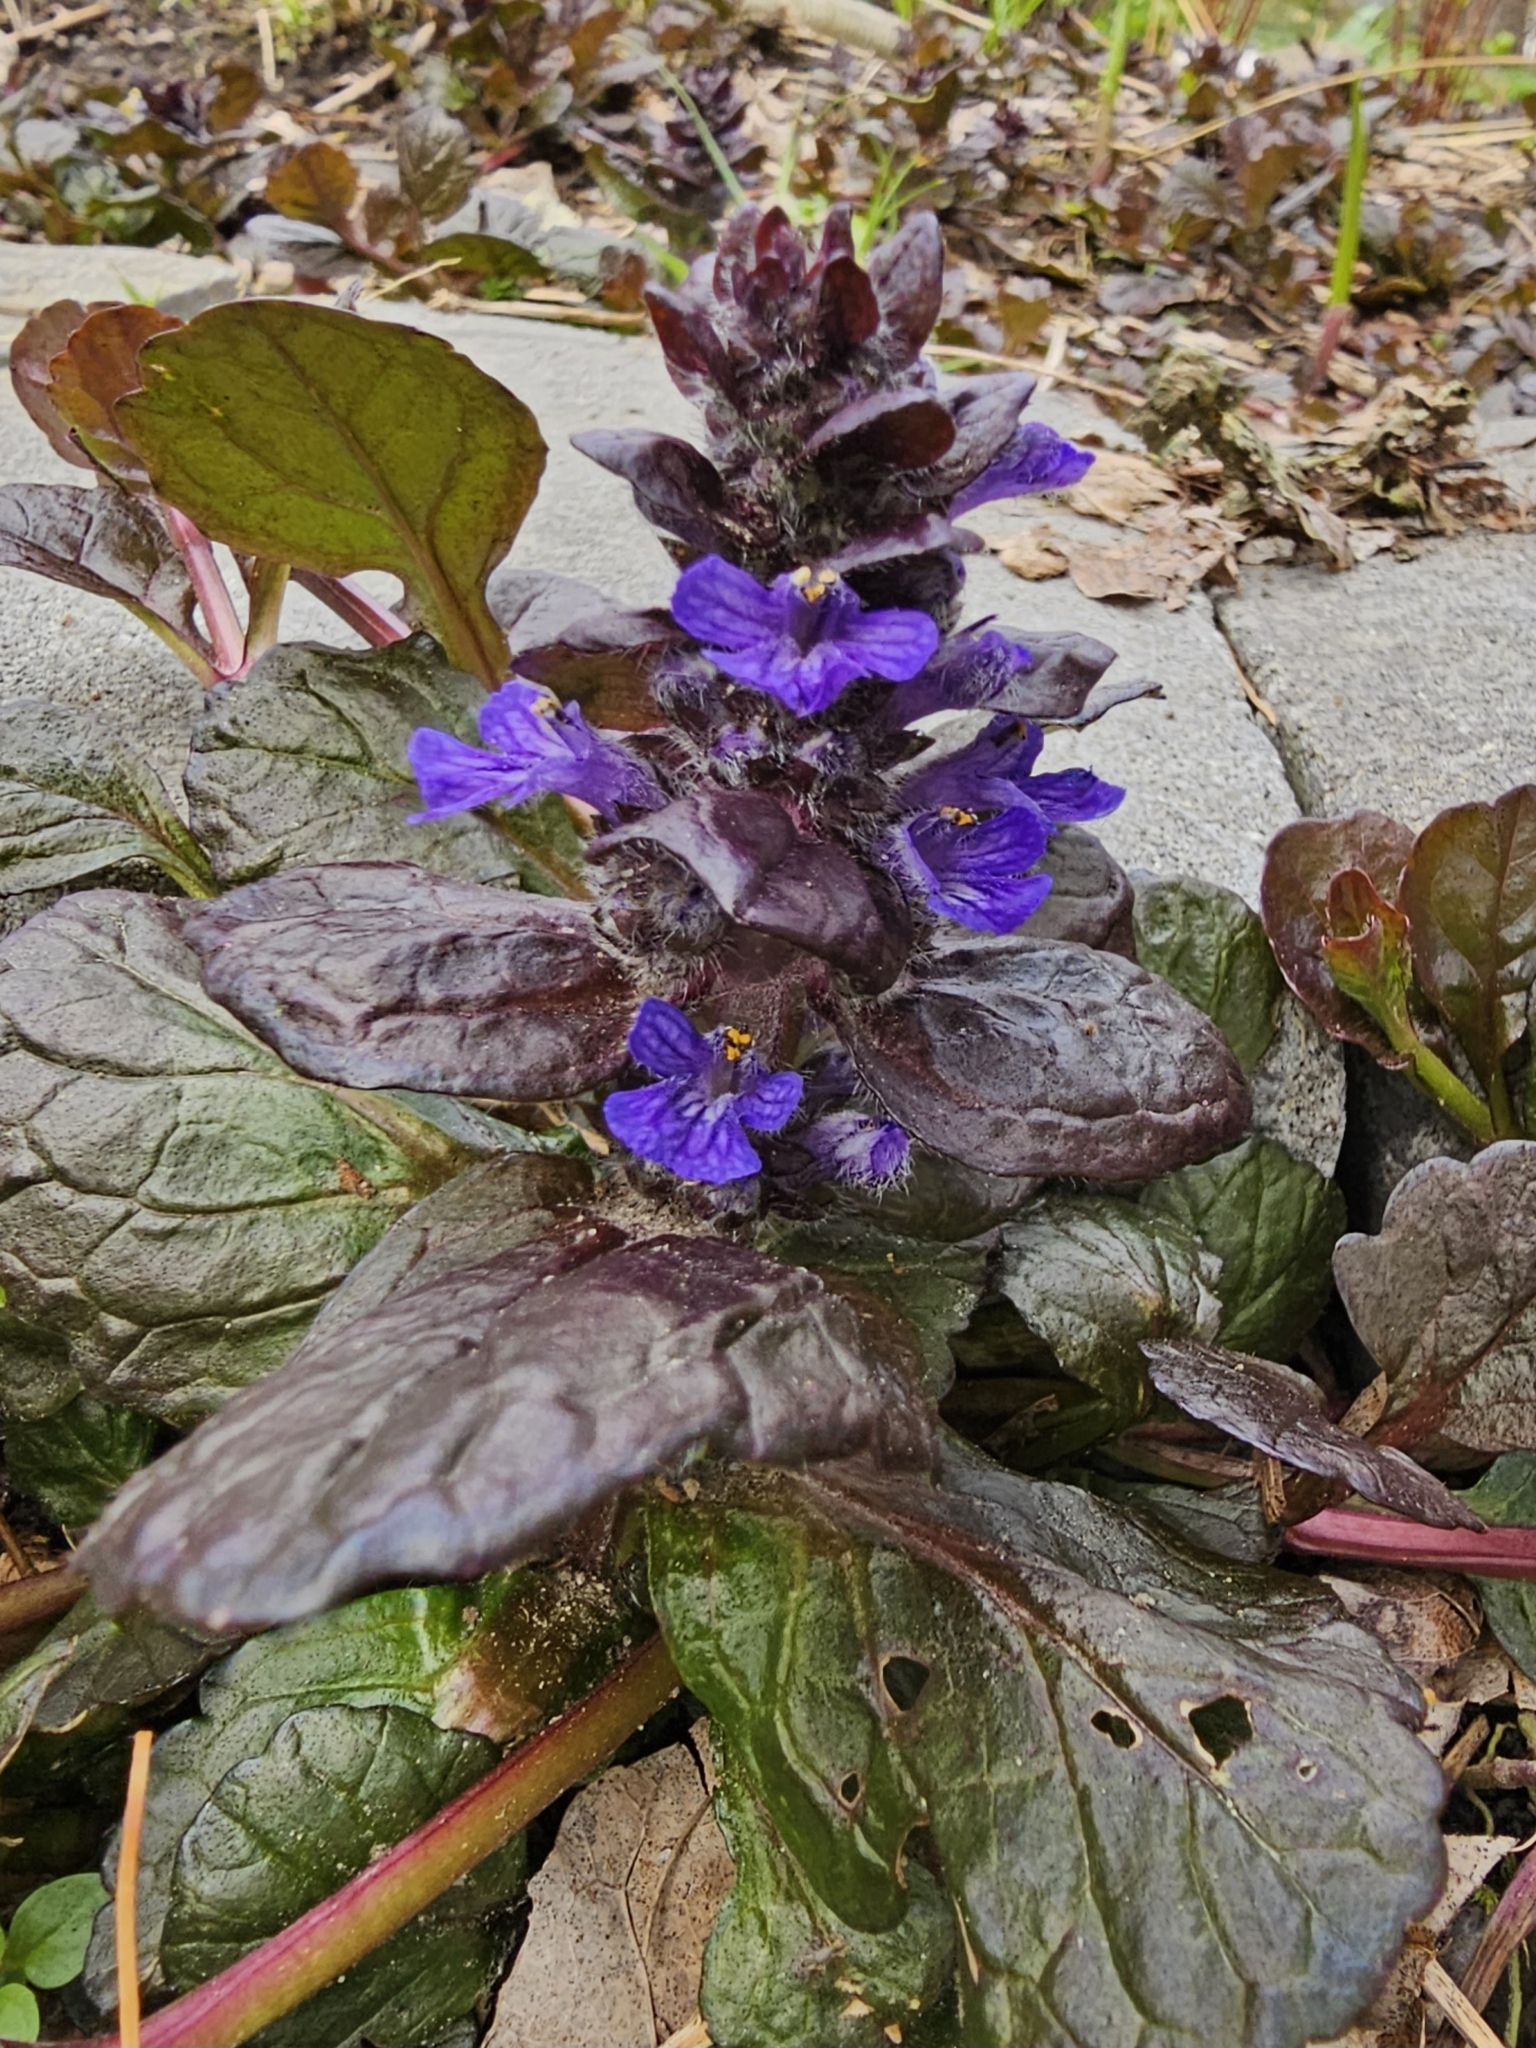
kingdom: Plantae
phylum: Tracheophyta
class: Magnoliopsida
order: Lamiales
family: Lamiaceae
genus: Ajuga
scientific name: Ajuga reptans
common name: Bugle
